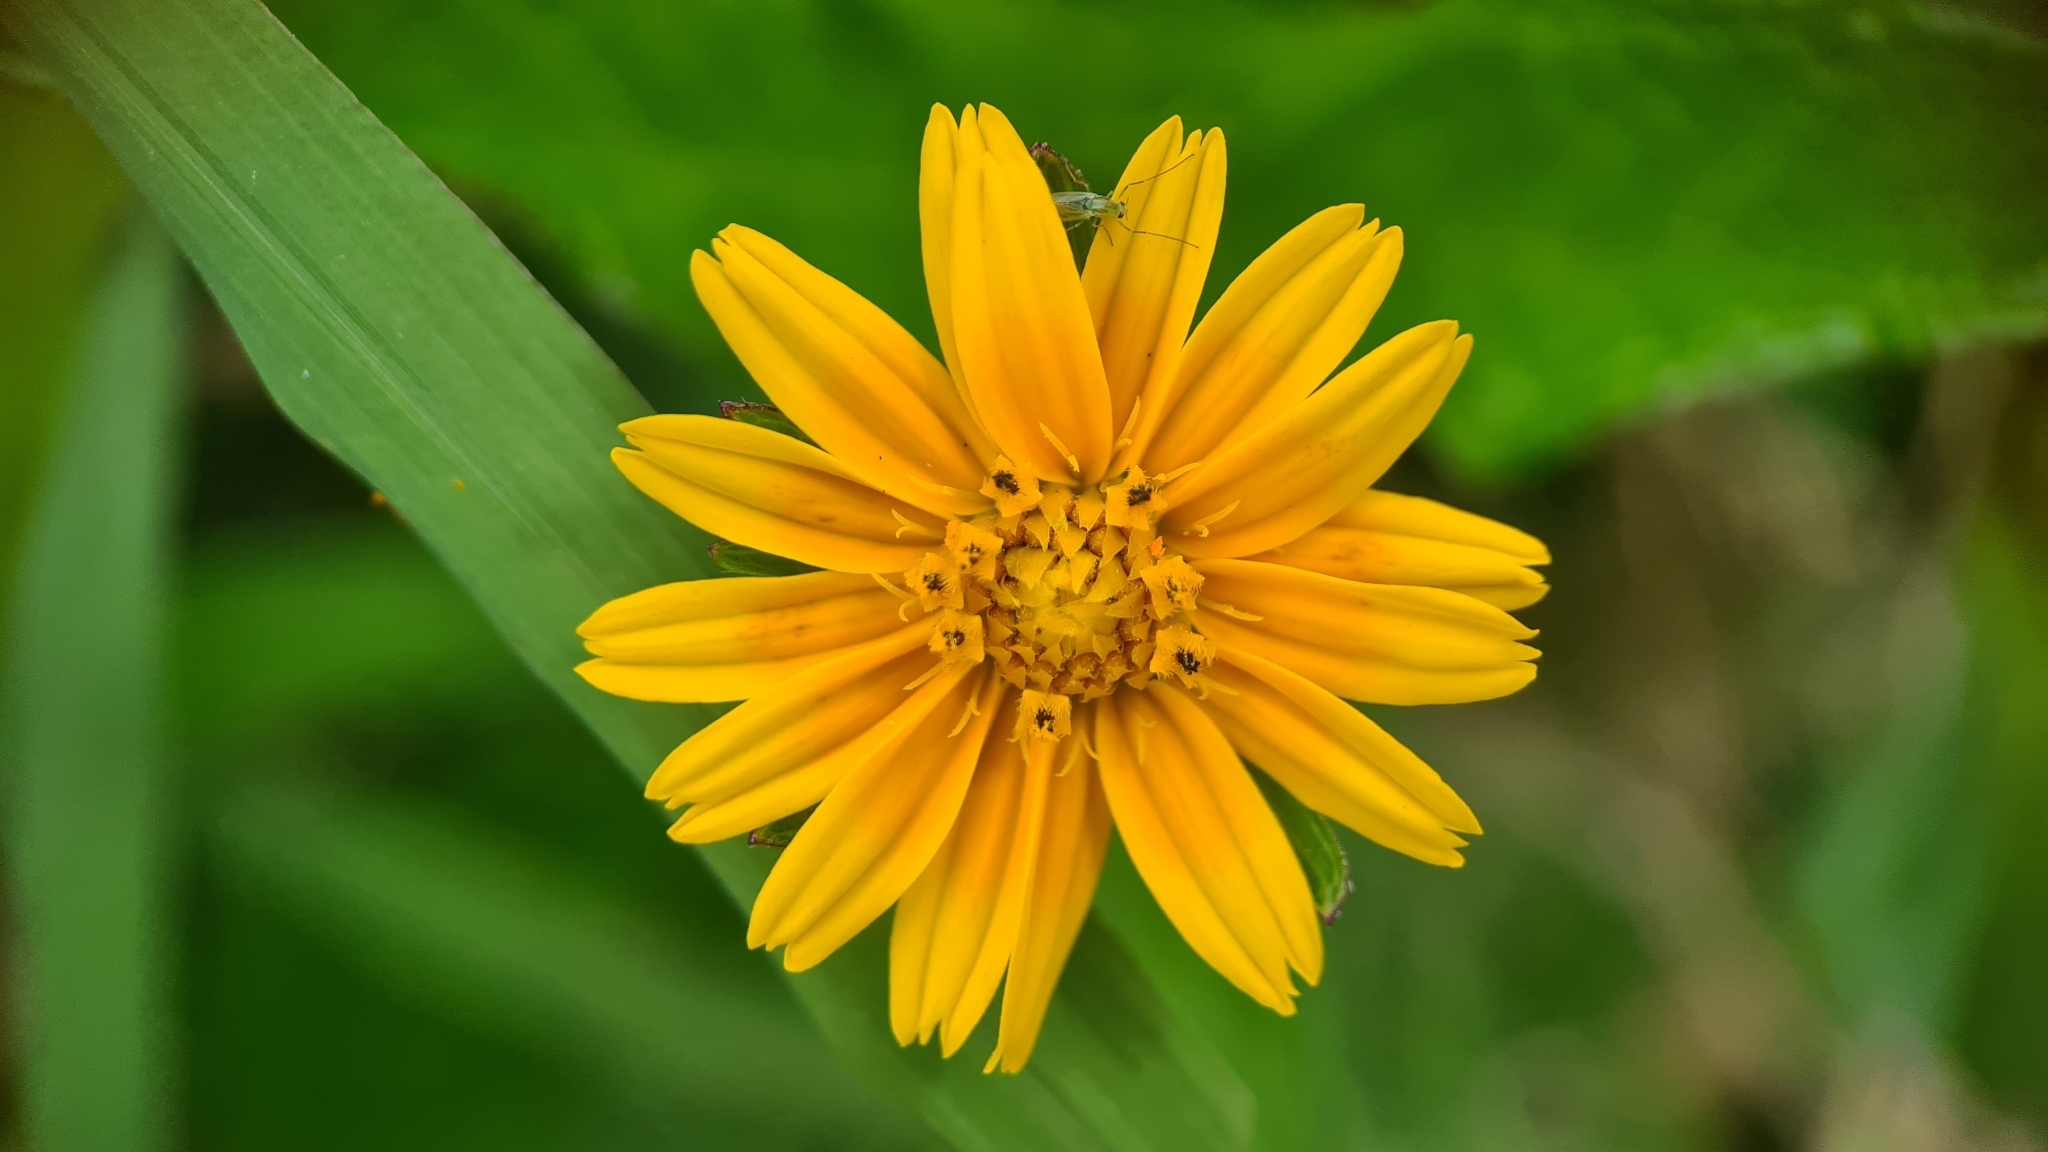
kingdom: Plantae
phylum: Tracheophyta
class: Magnoliopsida
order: Asterales
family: Asteraceae
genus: Sphagneticola
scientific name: Sphagneticola trilobata
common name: Bay biscayne creeping-oxeye
